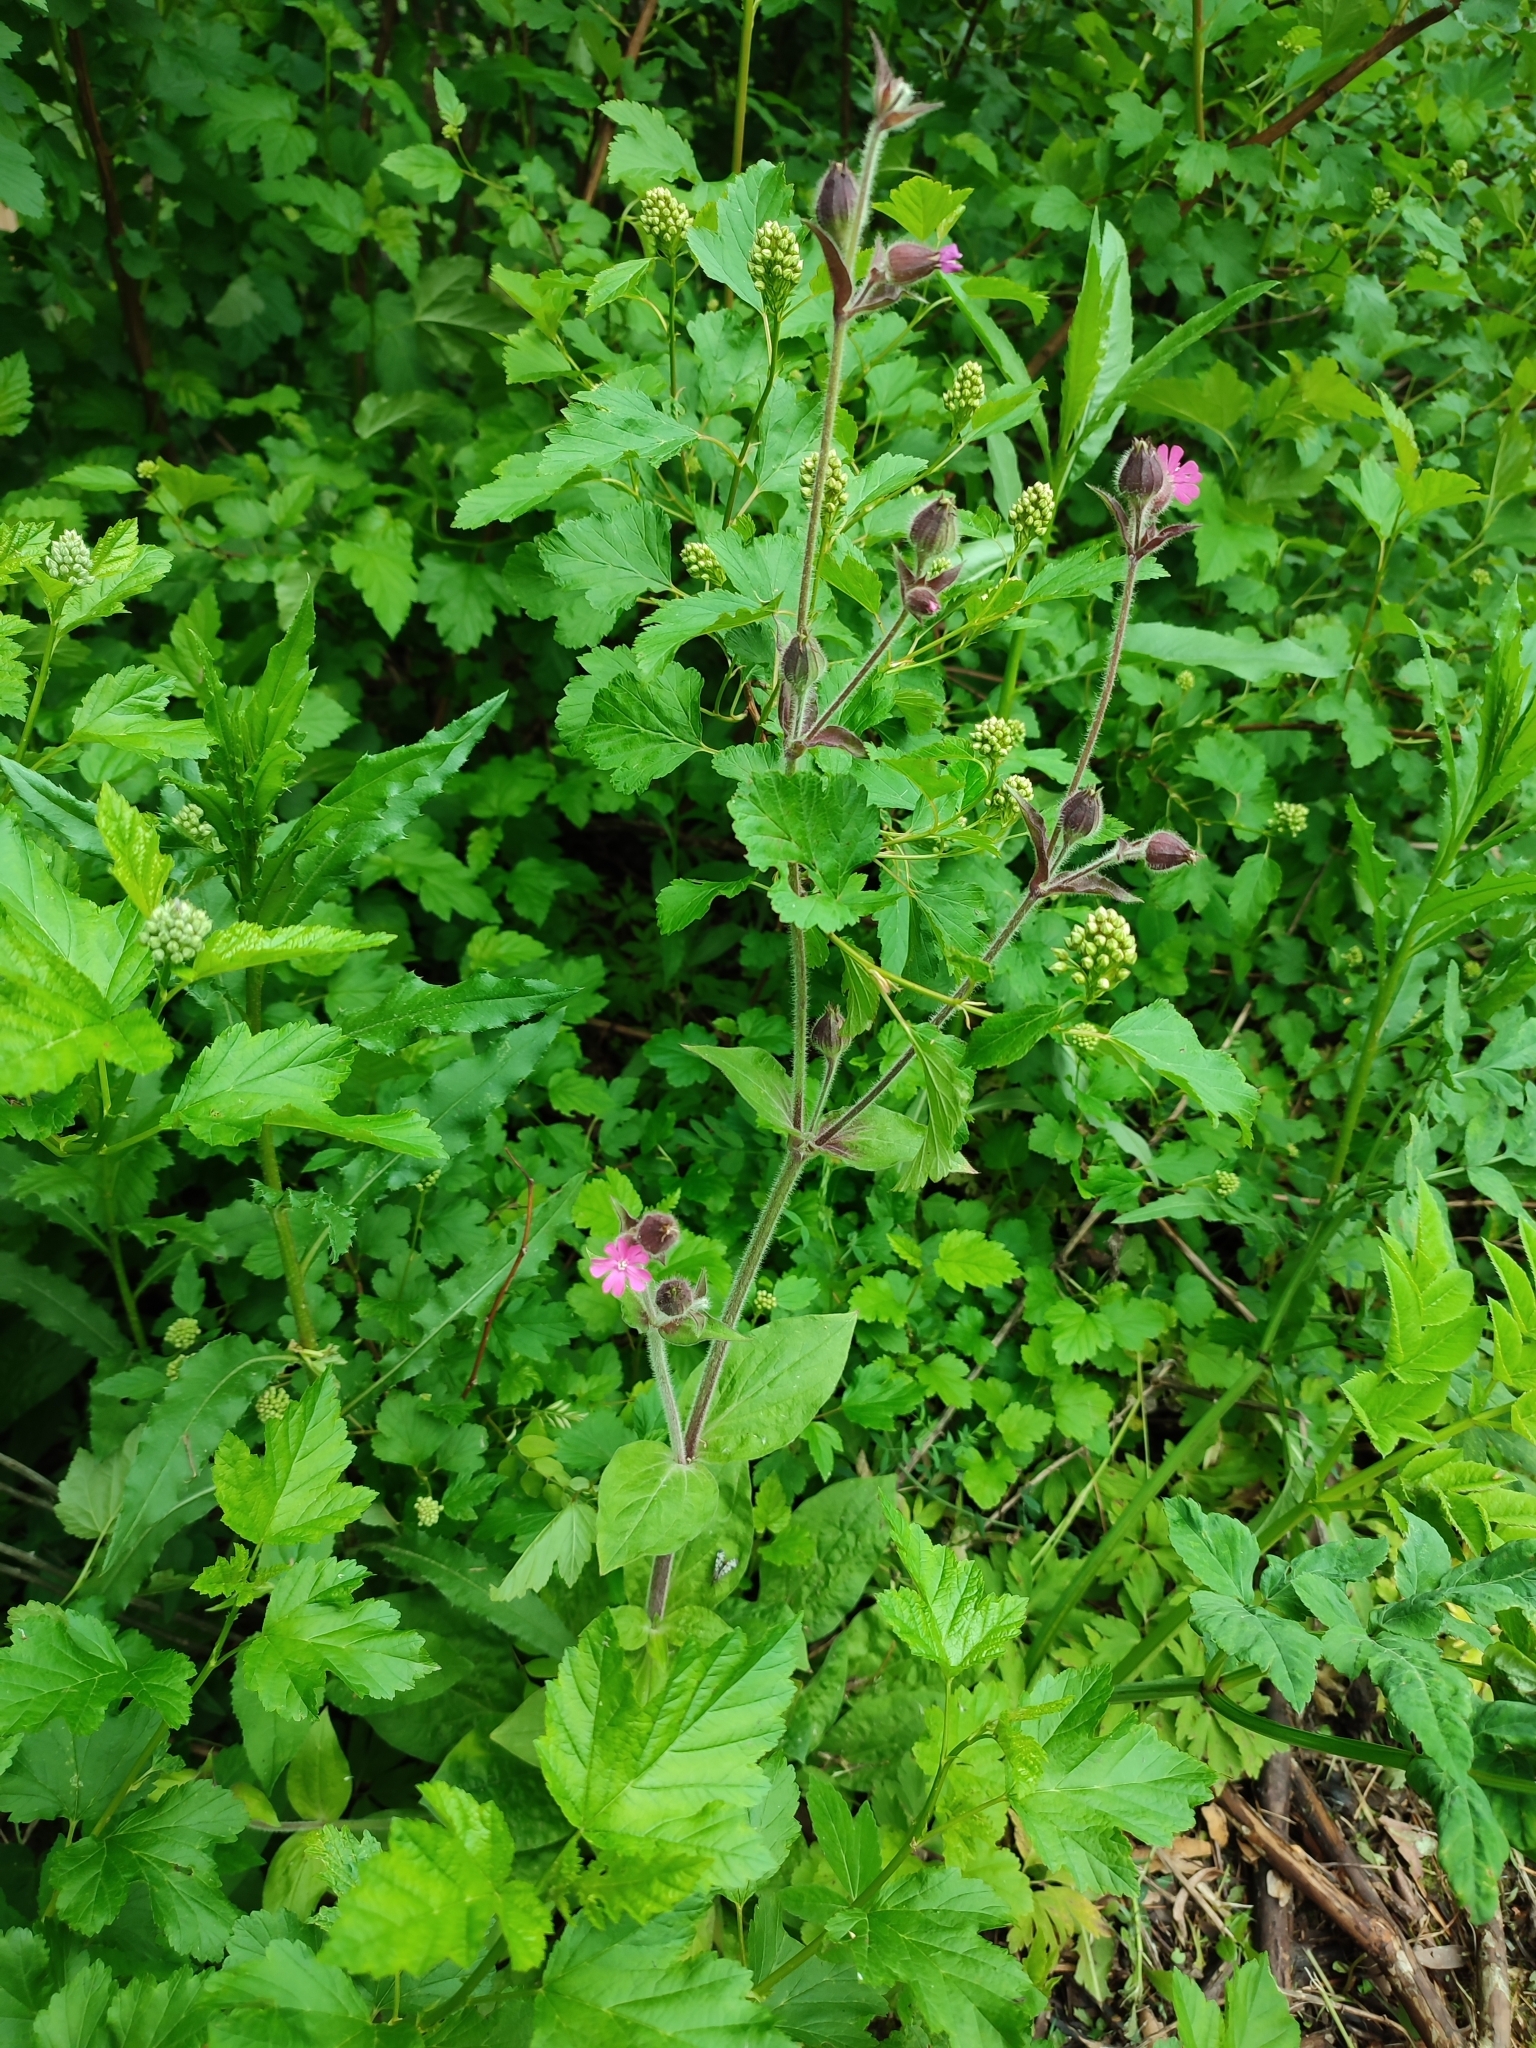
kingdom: Plantae
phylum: Tracheophyta
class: Magnoliopsida
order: Caryophyllales
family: Caryophyllaceae
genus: Silene
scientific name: Silene dioica
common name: Red campion
